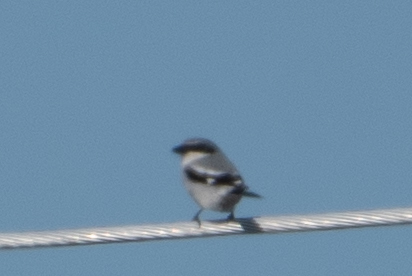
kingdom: Animalia
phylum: Chordata
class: Aves
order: Passeriformes
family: Laniidae
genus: Lanius
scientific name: Lanius ludovicianus
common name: Loggerhead shrike
